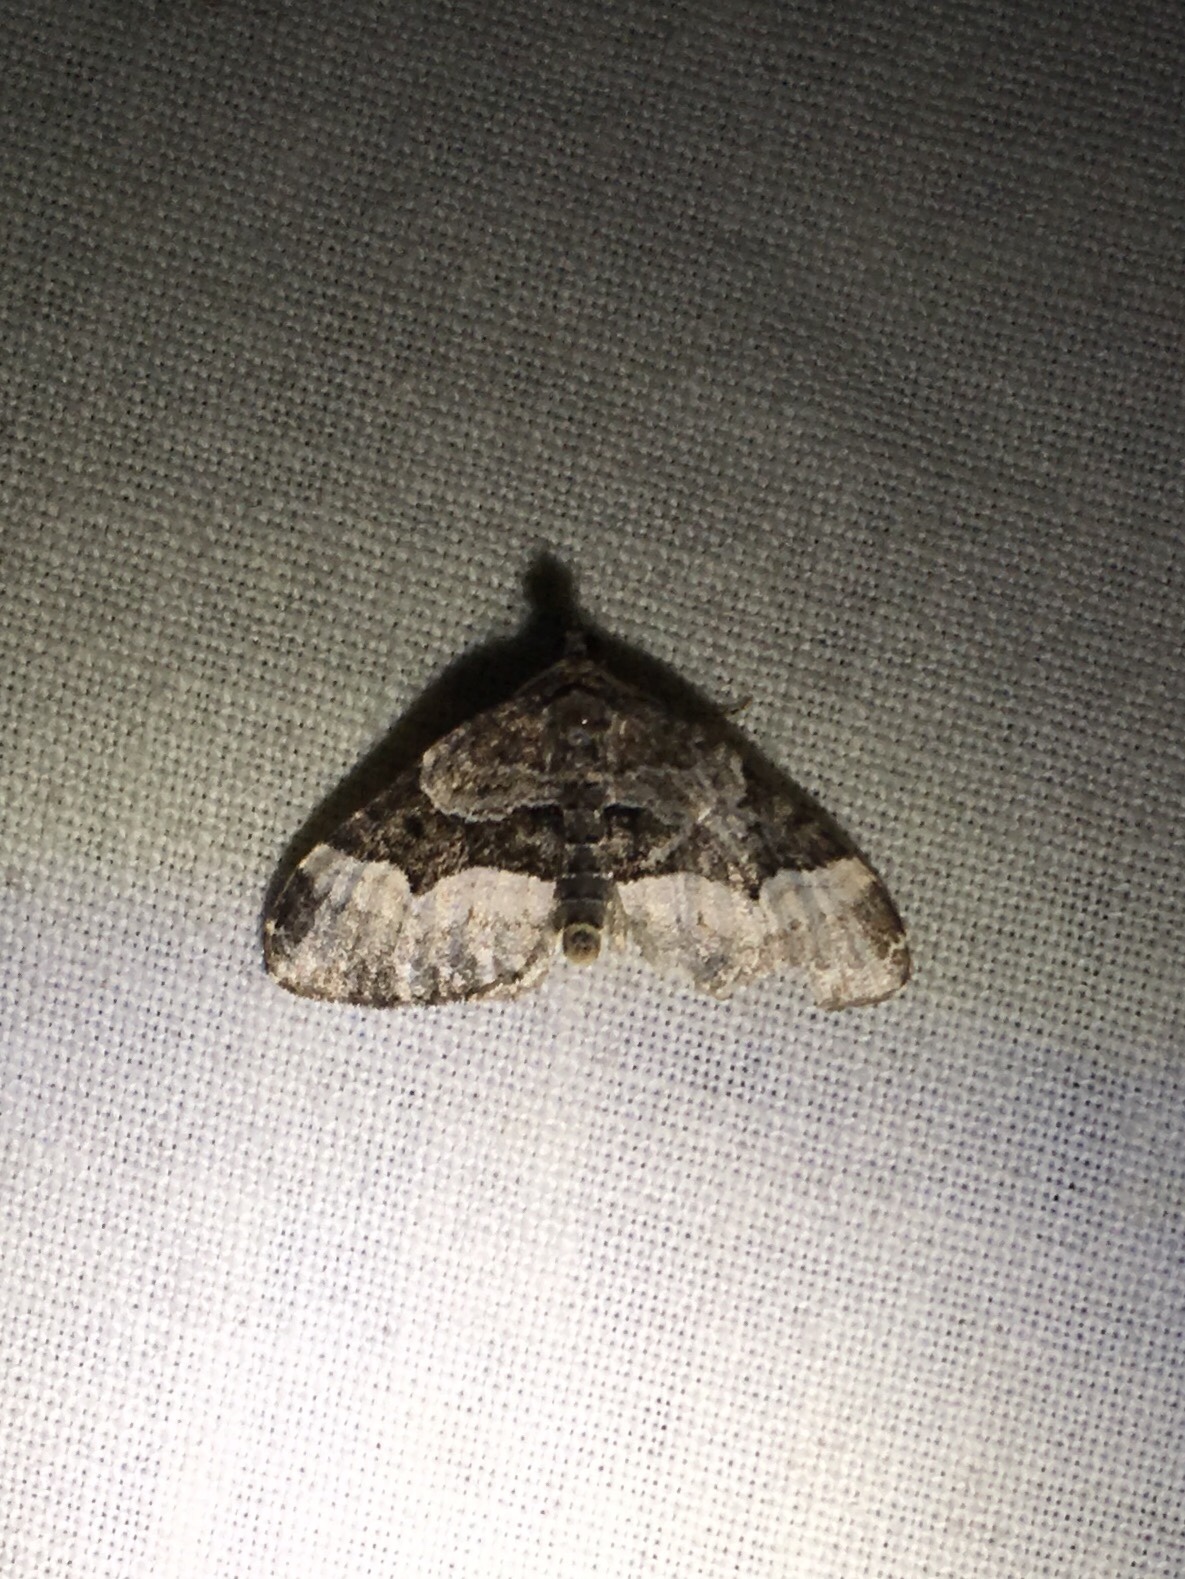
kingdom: Animalia
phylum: Arthropoda
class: Insecta
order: Lepidoptera
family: Geometridae
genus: Euphyia
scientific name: Euphyia intermediata
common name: Sharp-angled carpet
